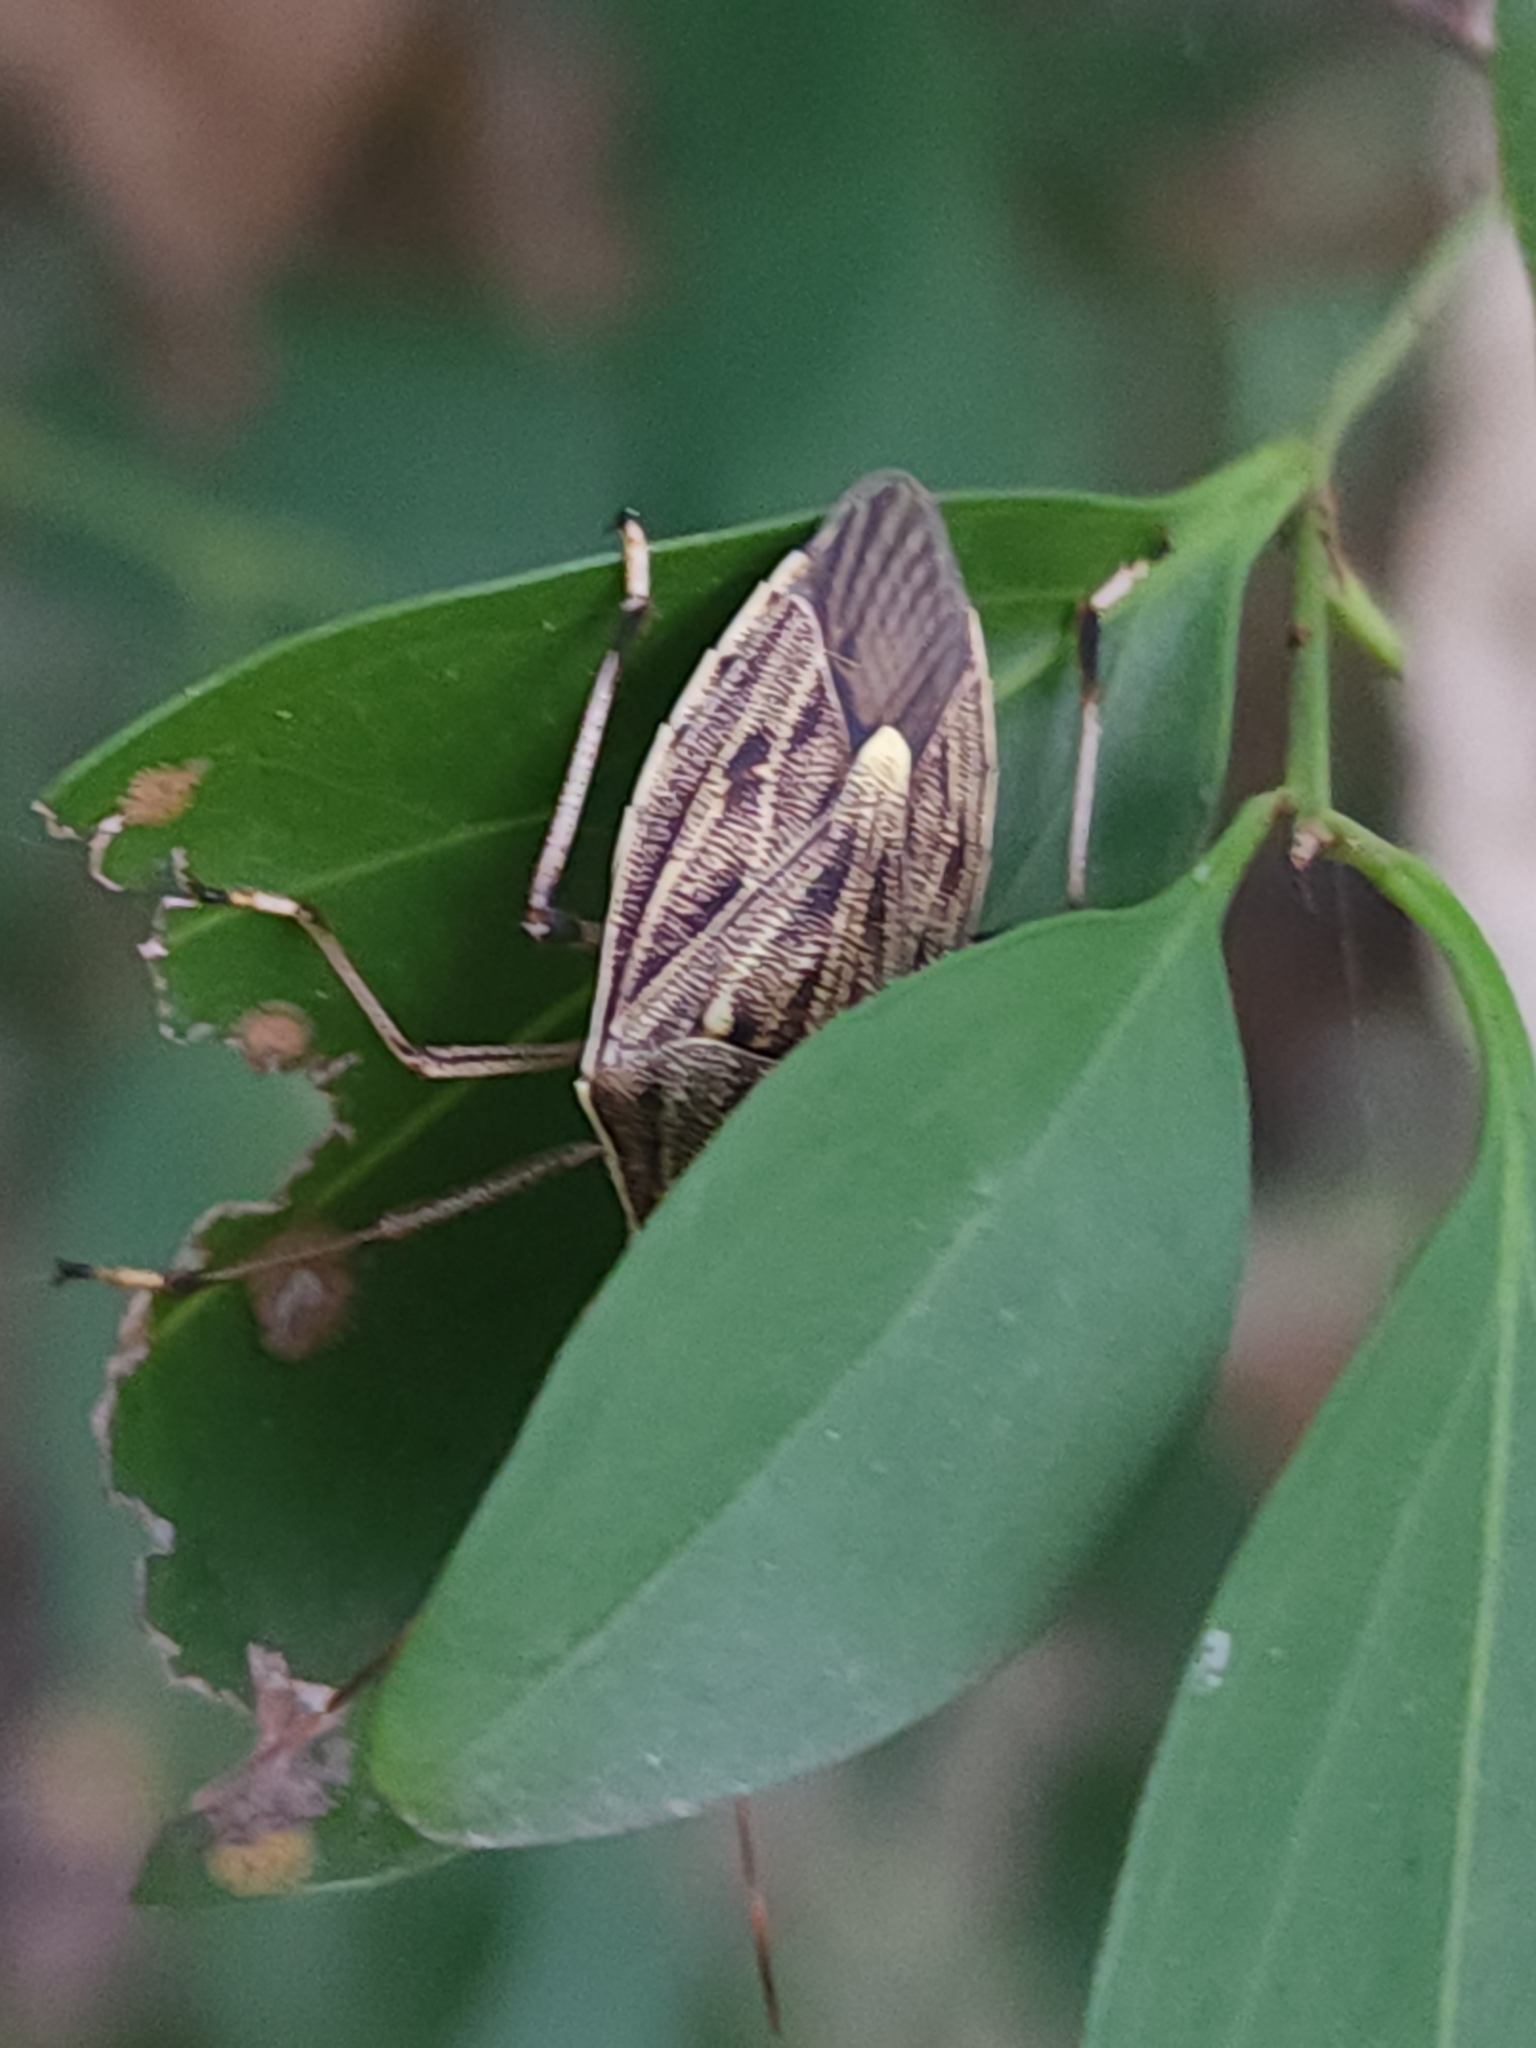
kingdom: Animalia
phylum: Arthropoda
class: Insecta
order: Hemiptera
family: Pentatomidae
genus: Poecilometis
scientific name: Poecilometis
